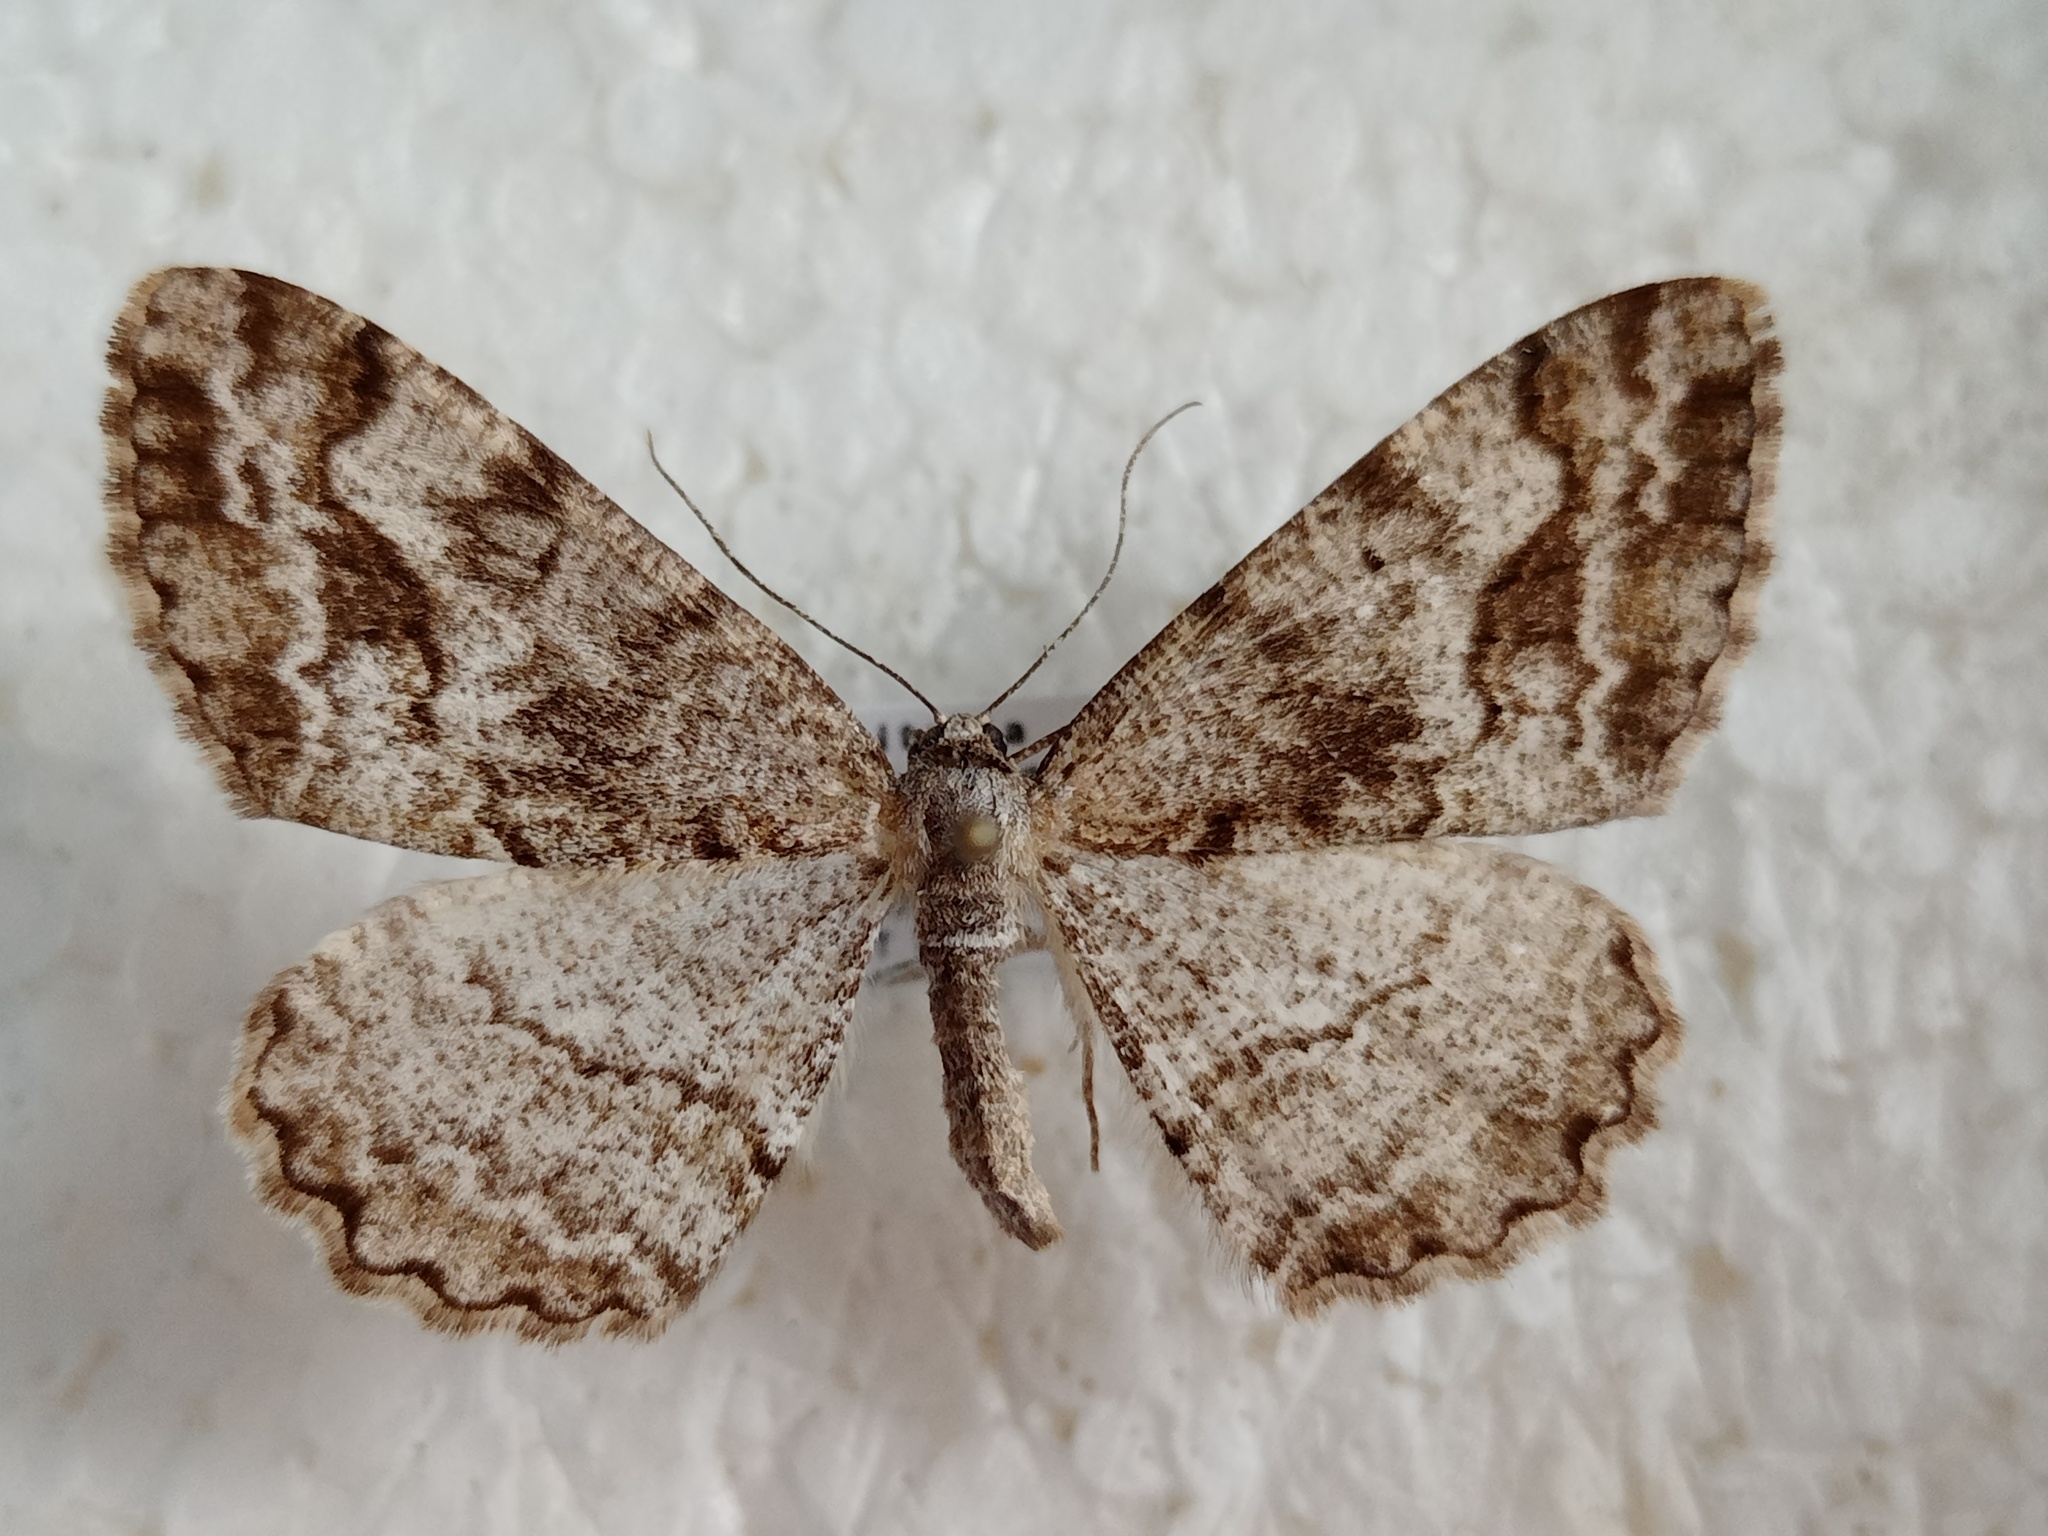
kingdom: Animalia
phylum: Arthropoda
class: Insecta
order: Lepidoptera
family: Geometridae
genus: Alcis
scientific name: Alcis repandata
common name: Mottled beauty
